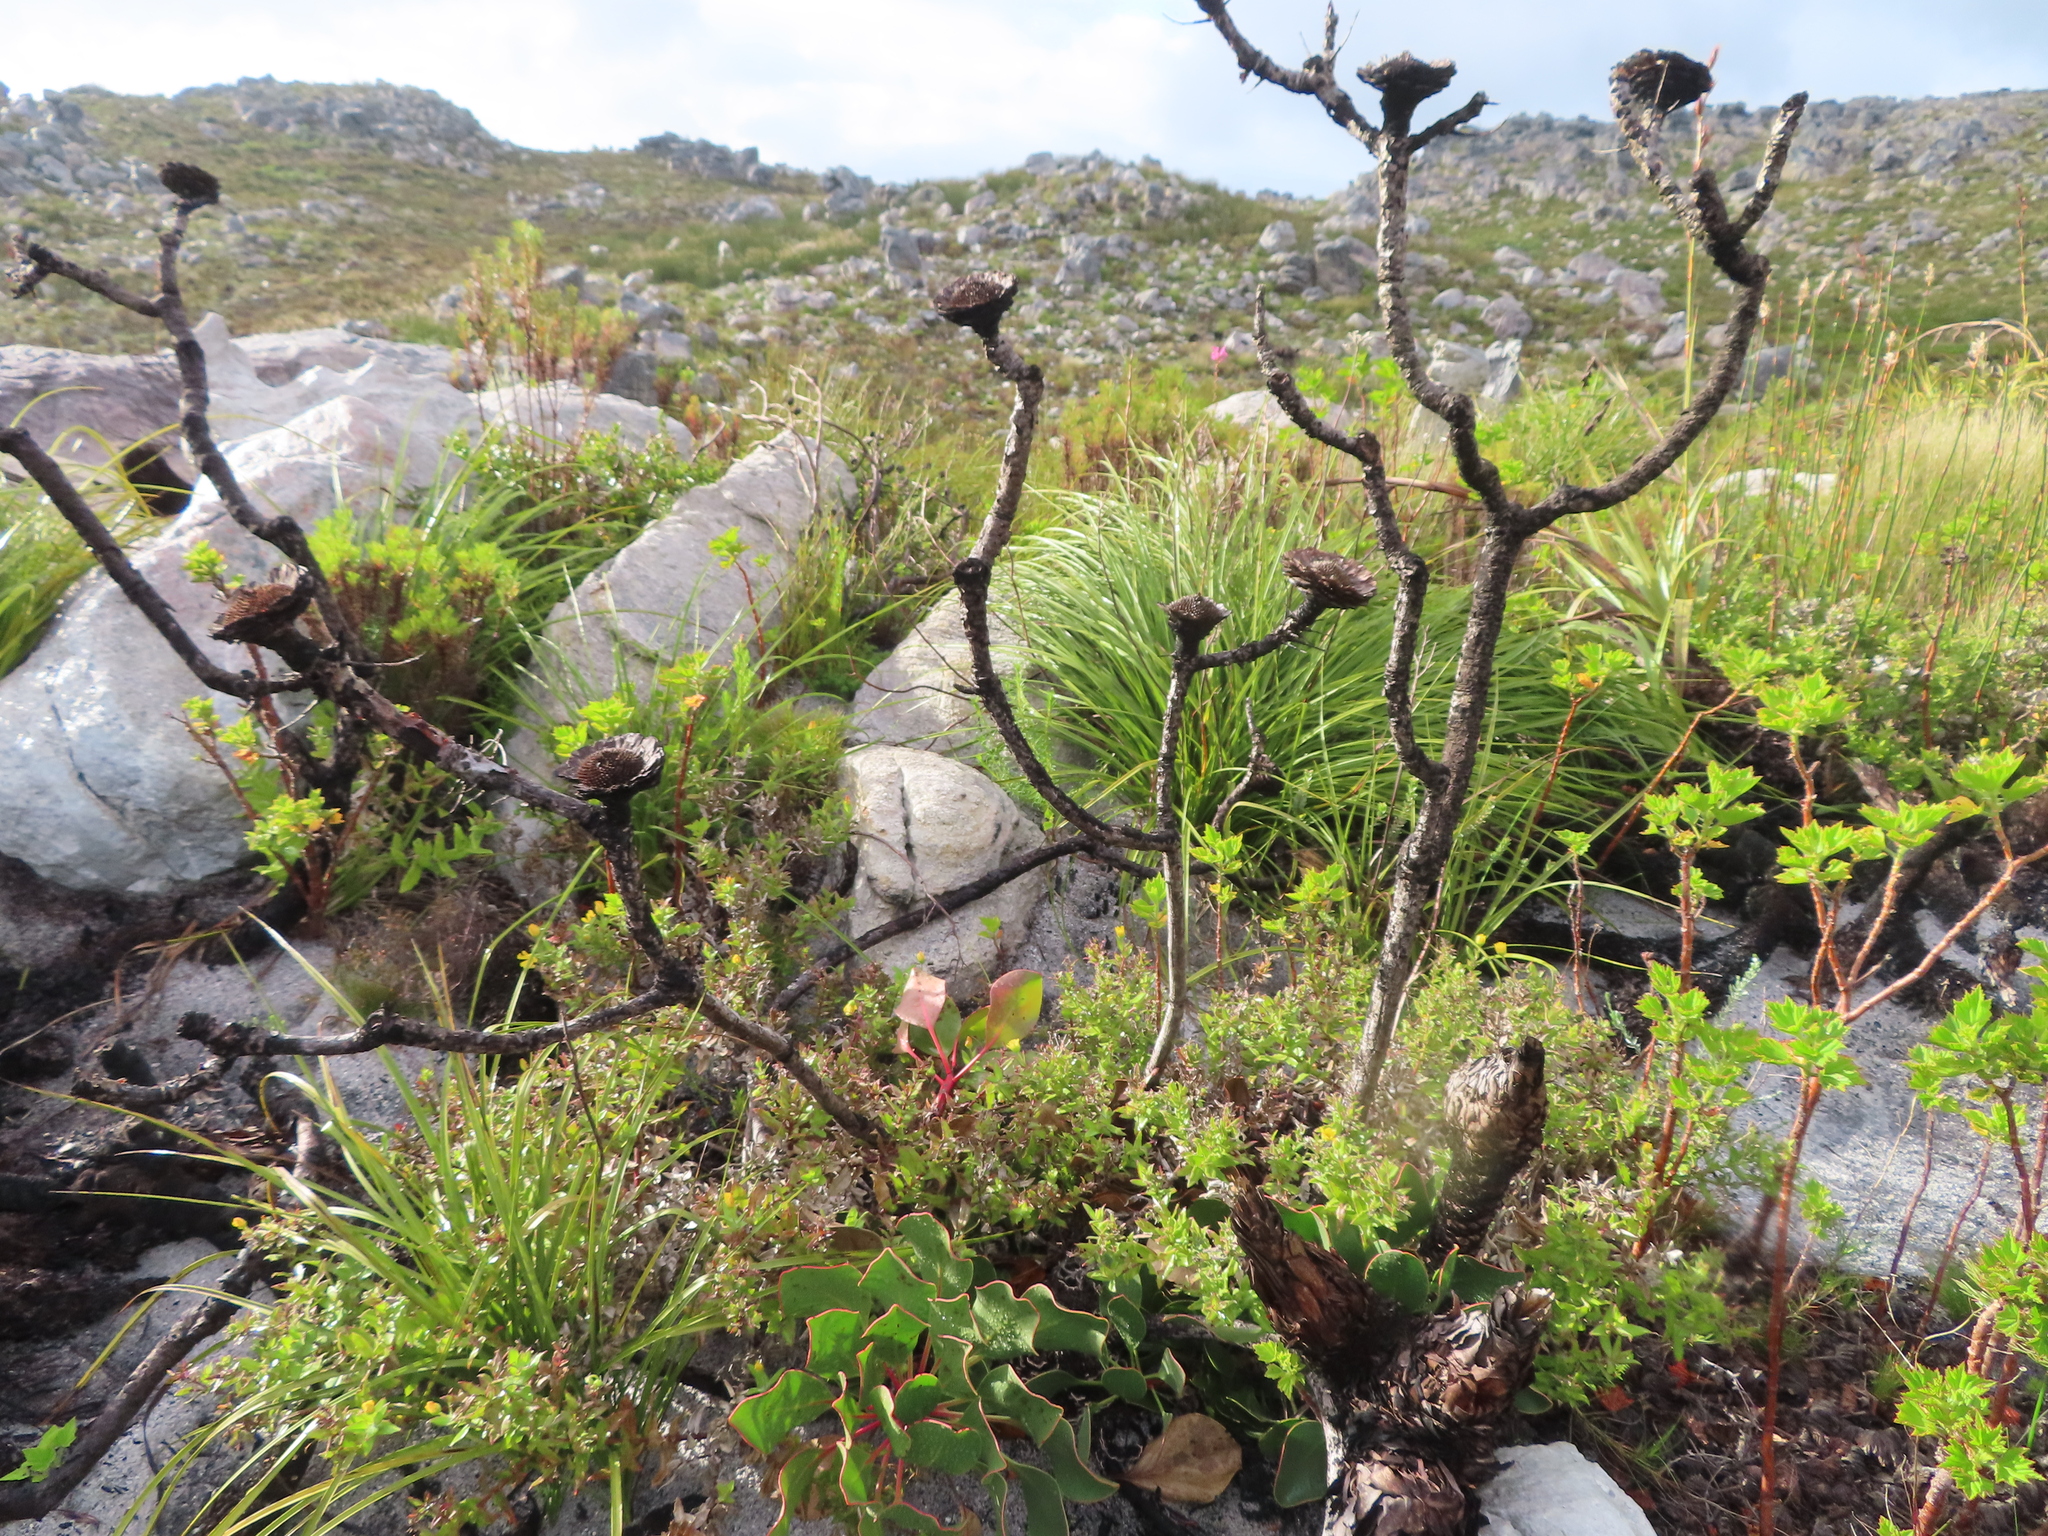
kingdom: Plantae
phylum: Tracheophyta
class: Magnoliopsida
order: Proteales
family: Proteaceae
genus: Protea
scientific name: Protea cynaroides
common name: King protea
